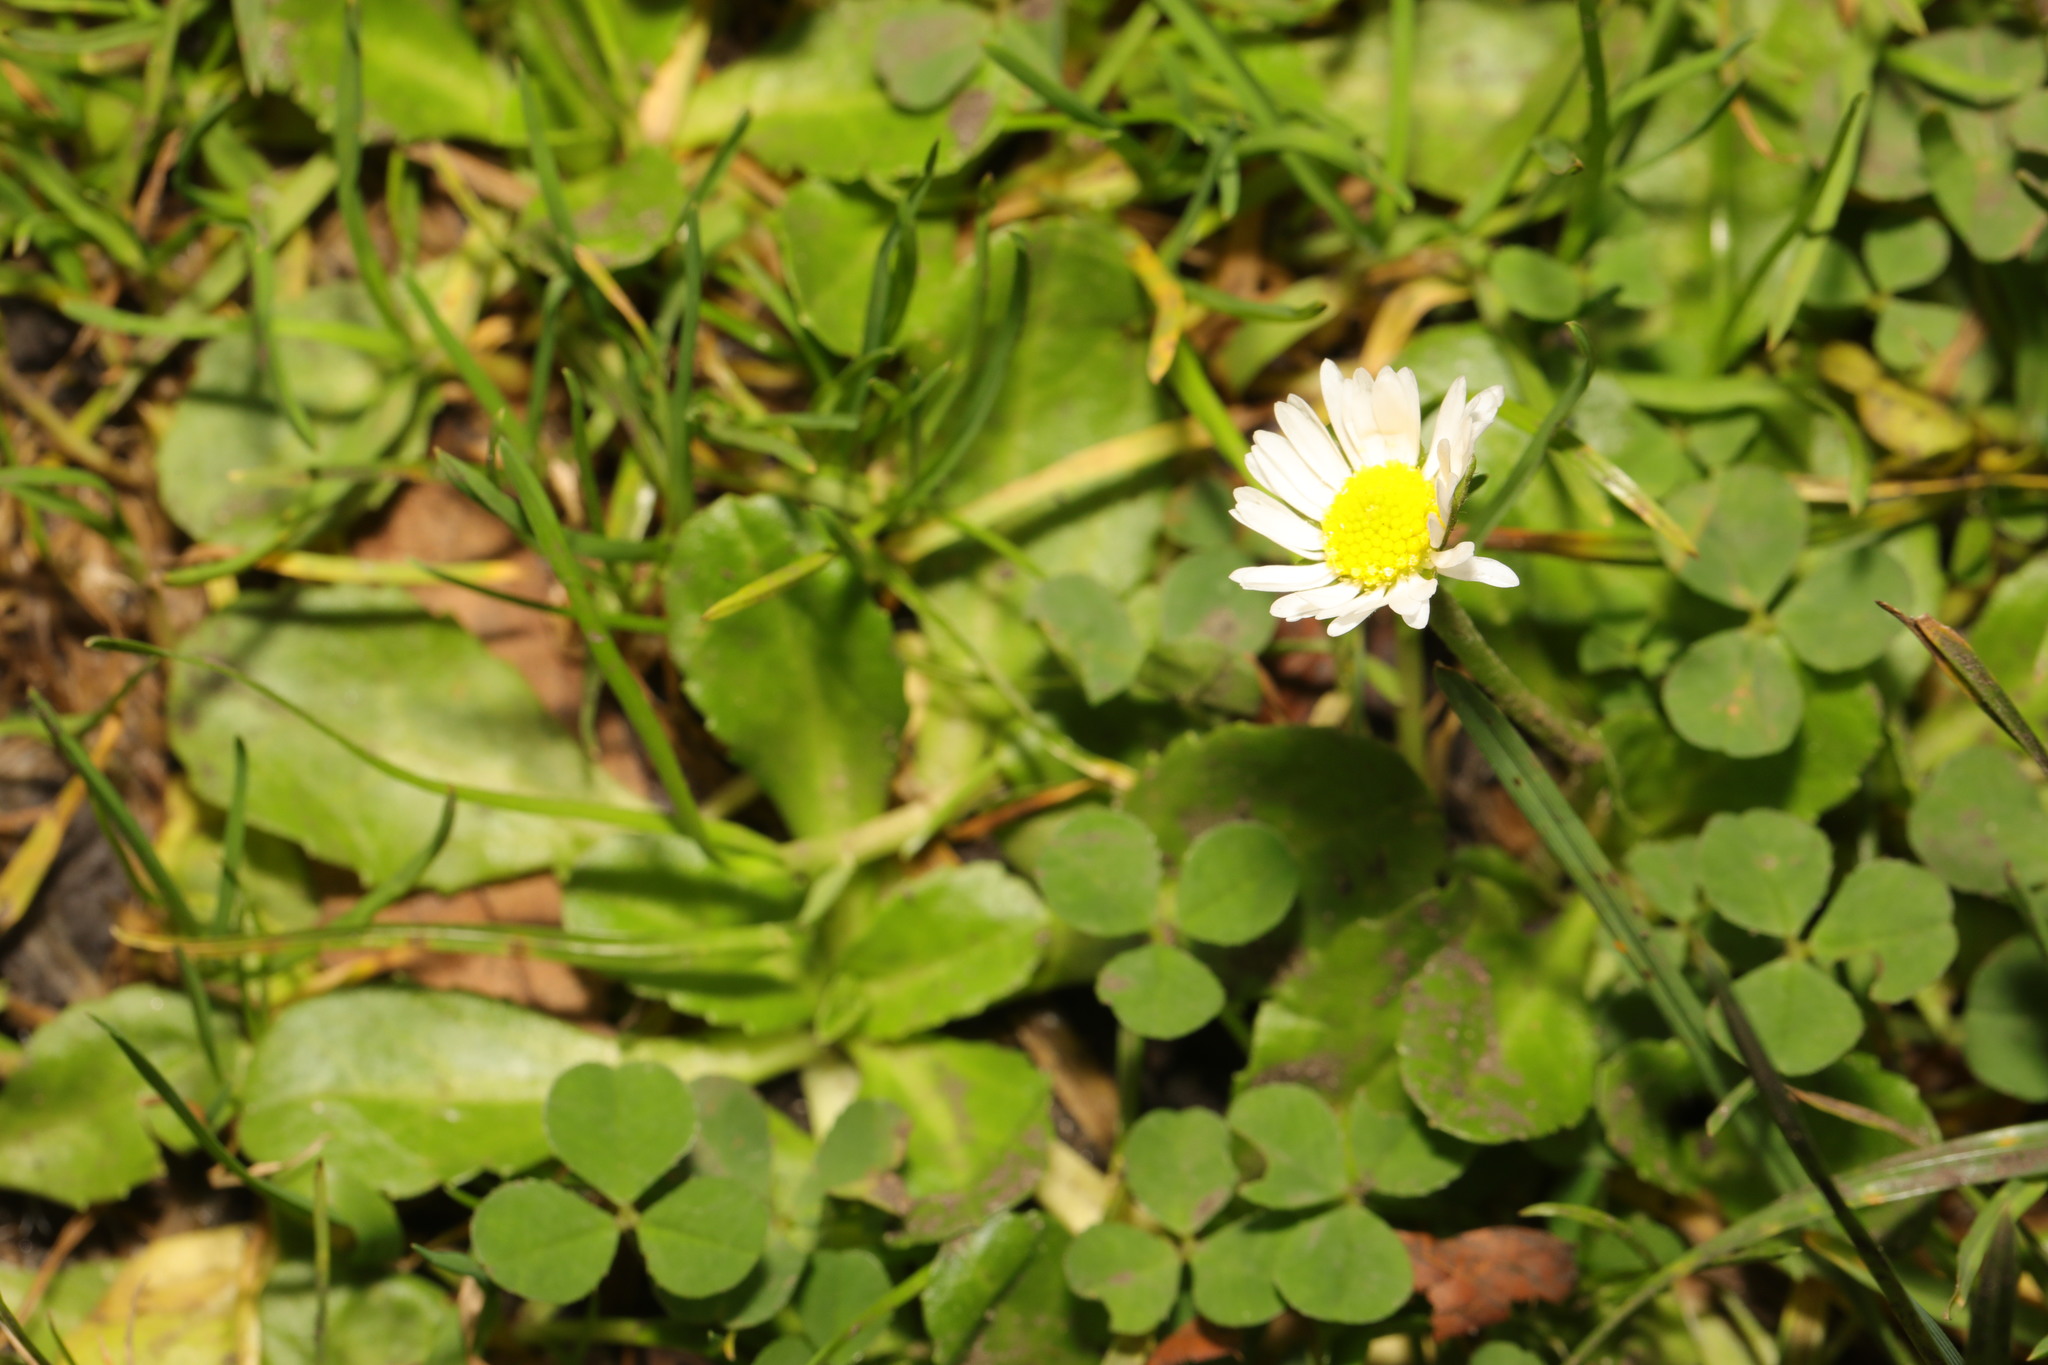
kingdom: Plantae
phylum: Tracheophyta
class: Magnoliopsida
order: Asterales
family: Asteraceae
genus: Bellis
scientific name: Bellis perennis
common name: Lawndaisy
